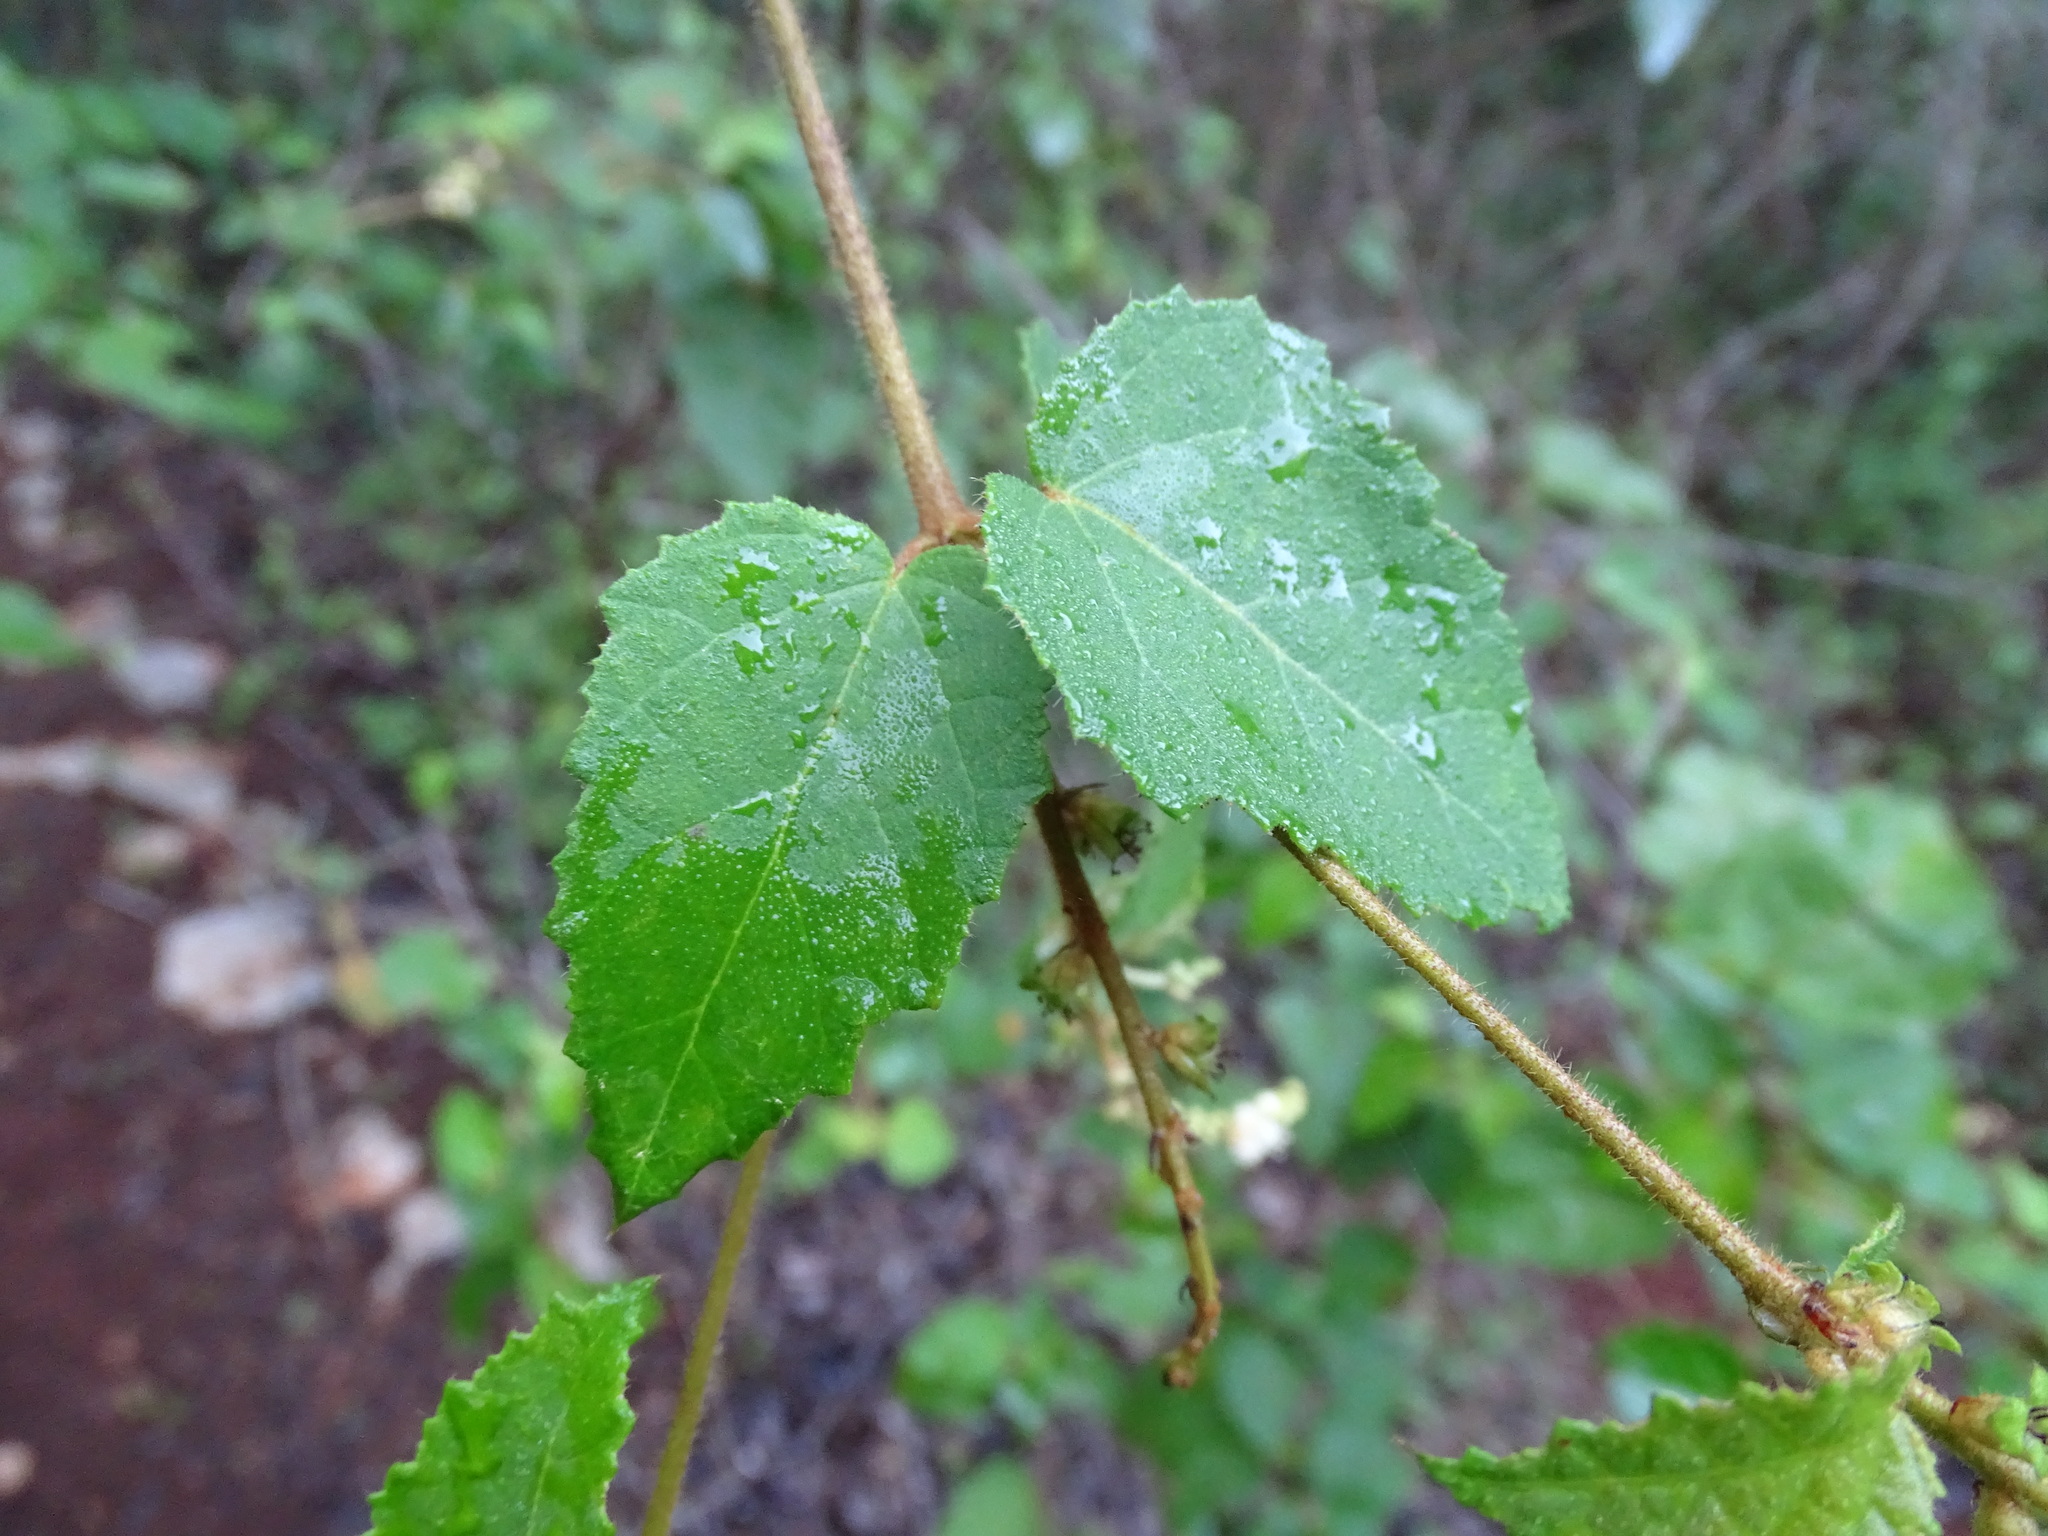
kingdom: Plantae
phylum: Tracheophyta
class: Magnoliopsida
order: Malpighiales
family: Euphorbiaceae
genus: Croton
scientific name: Croton malvavisciifolius
